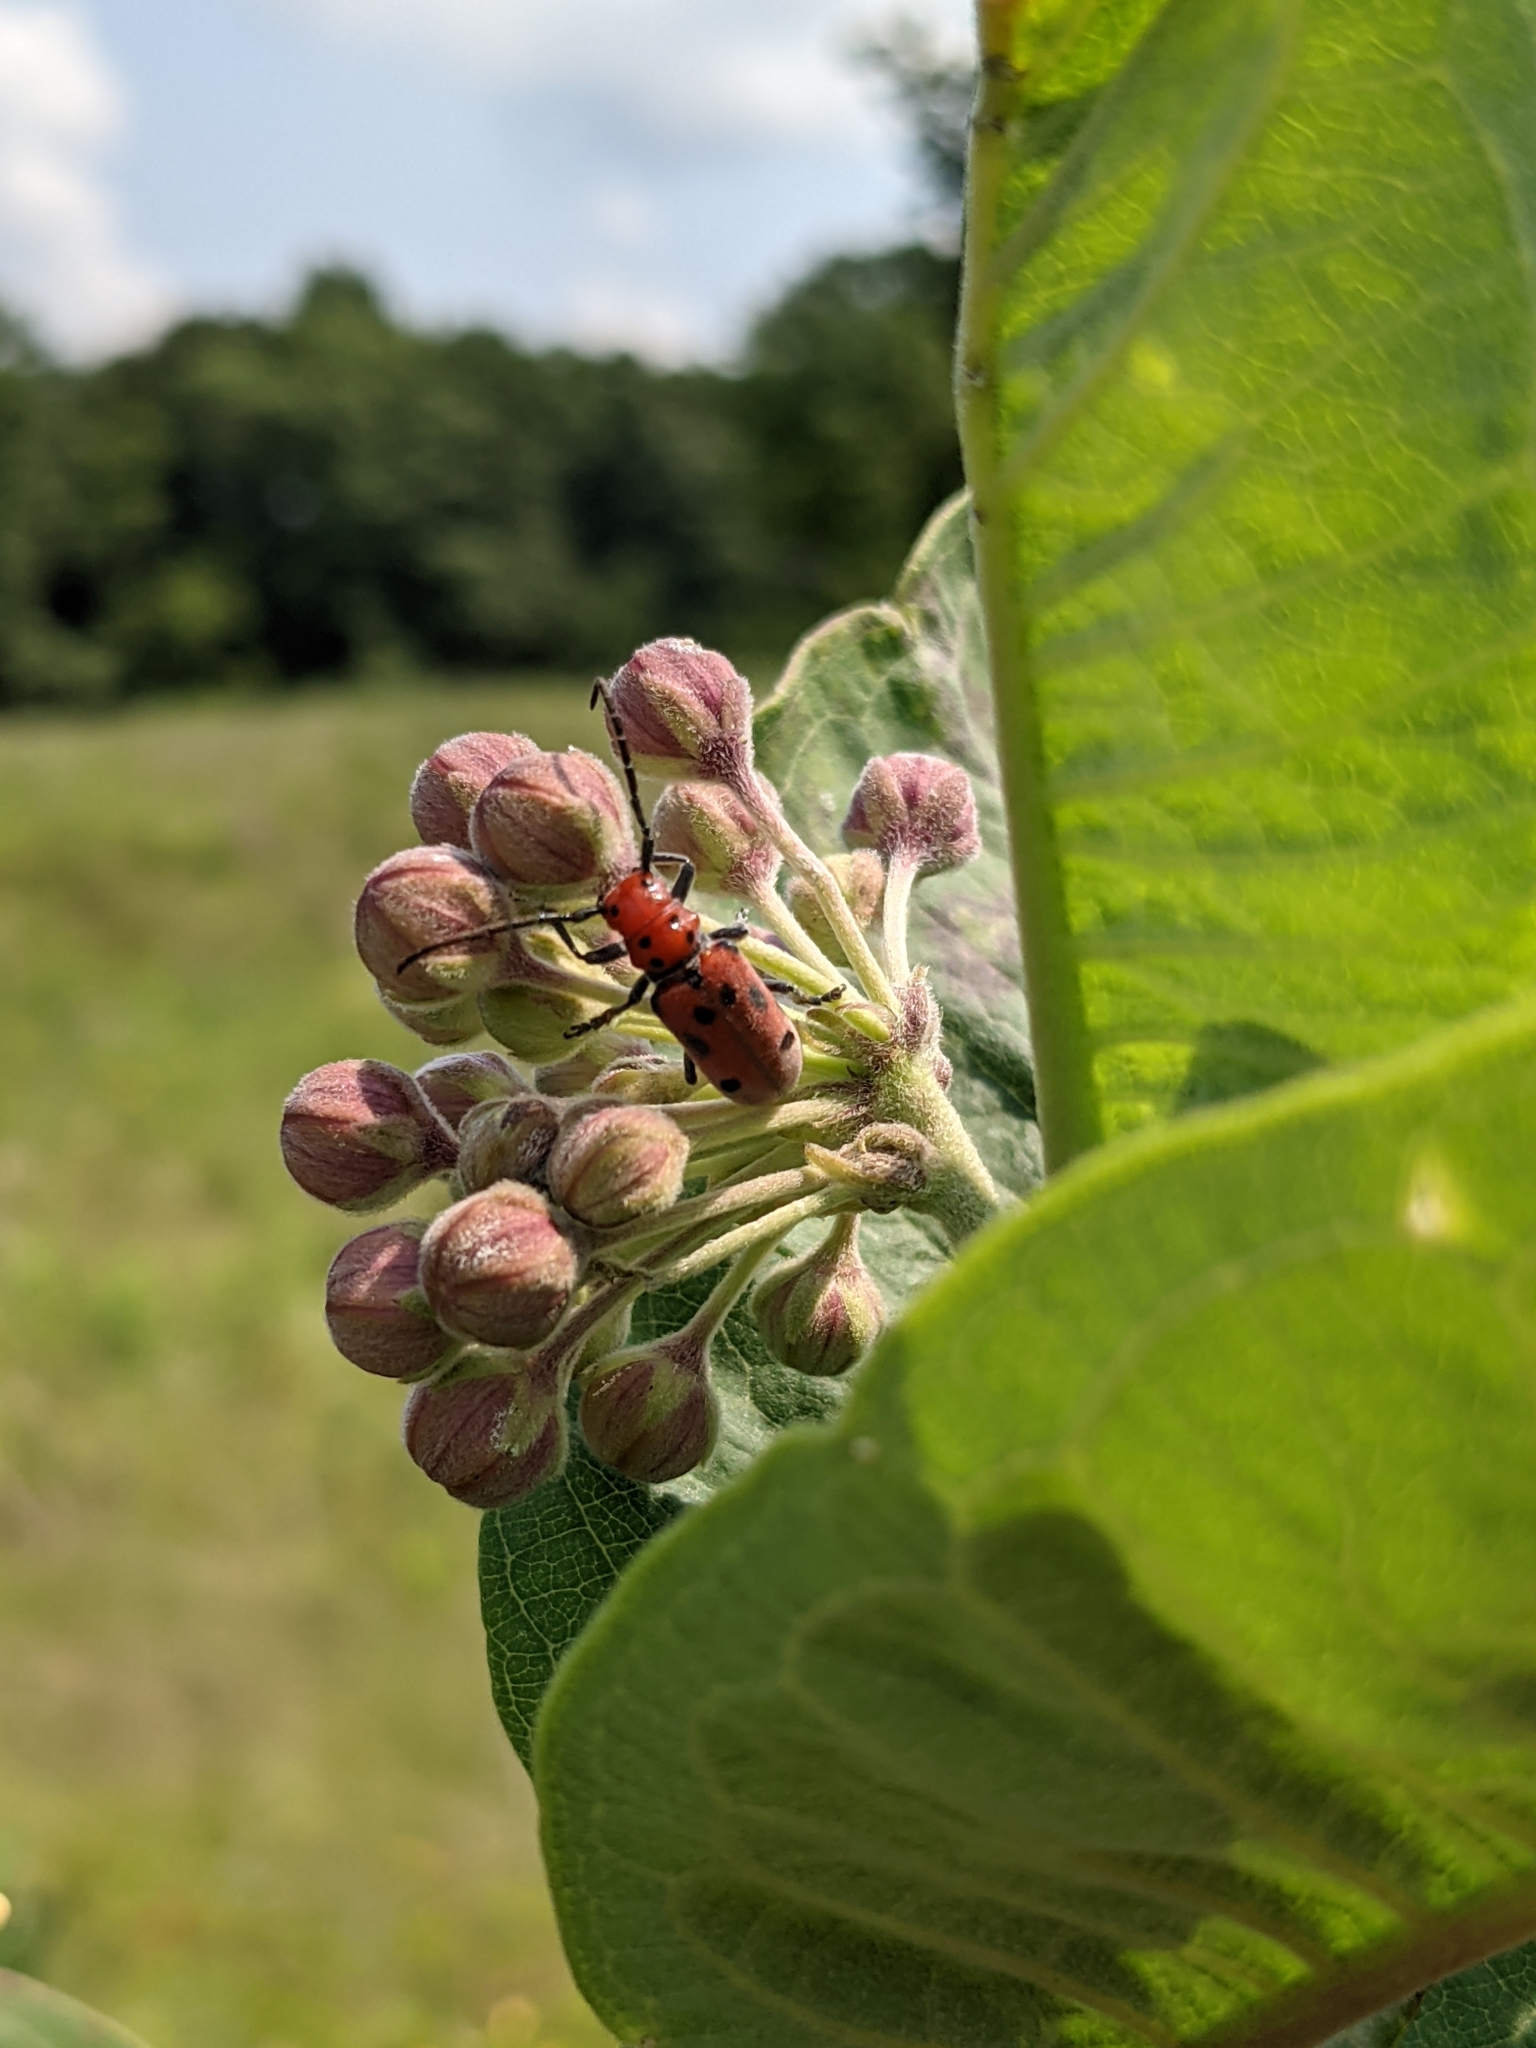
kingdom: Animalia
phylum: Arthropoda
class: Insecta
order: Coleoptera
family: Cerambycidae
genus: Tetraopes
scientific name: Tetraopes tetrophthalmus
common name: Red milkweed beetle
